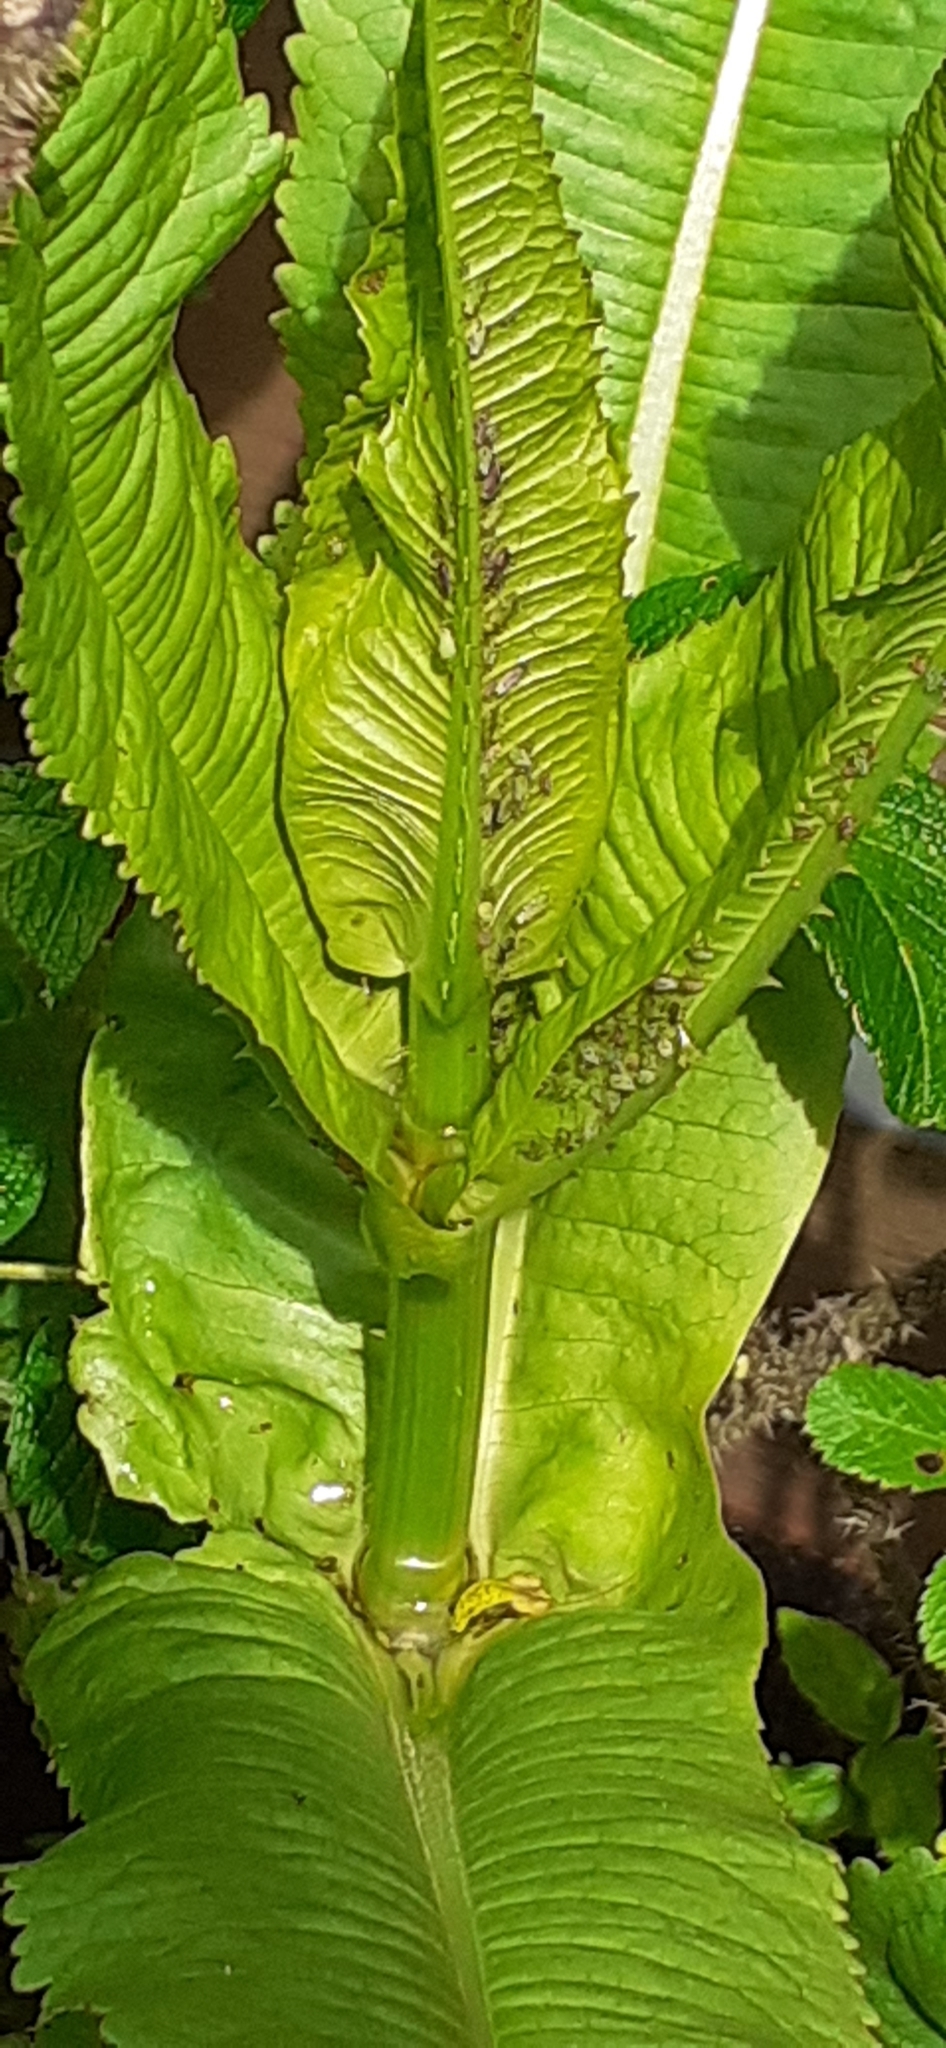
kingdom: Plantae
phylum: Tracheophyta
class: Magnoliopsida
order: Dipsacales
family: Caprifoliaceae
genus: Dipsacus
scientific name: Dipsacus fullonum
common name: Teasel
